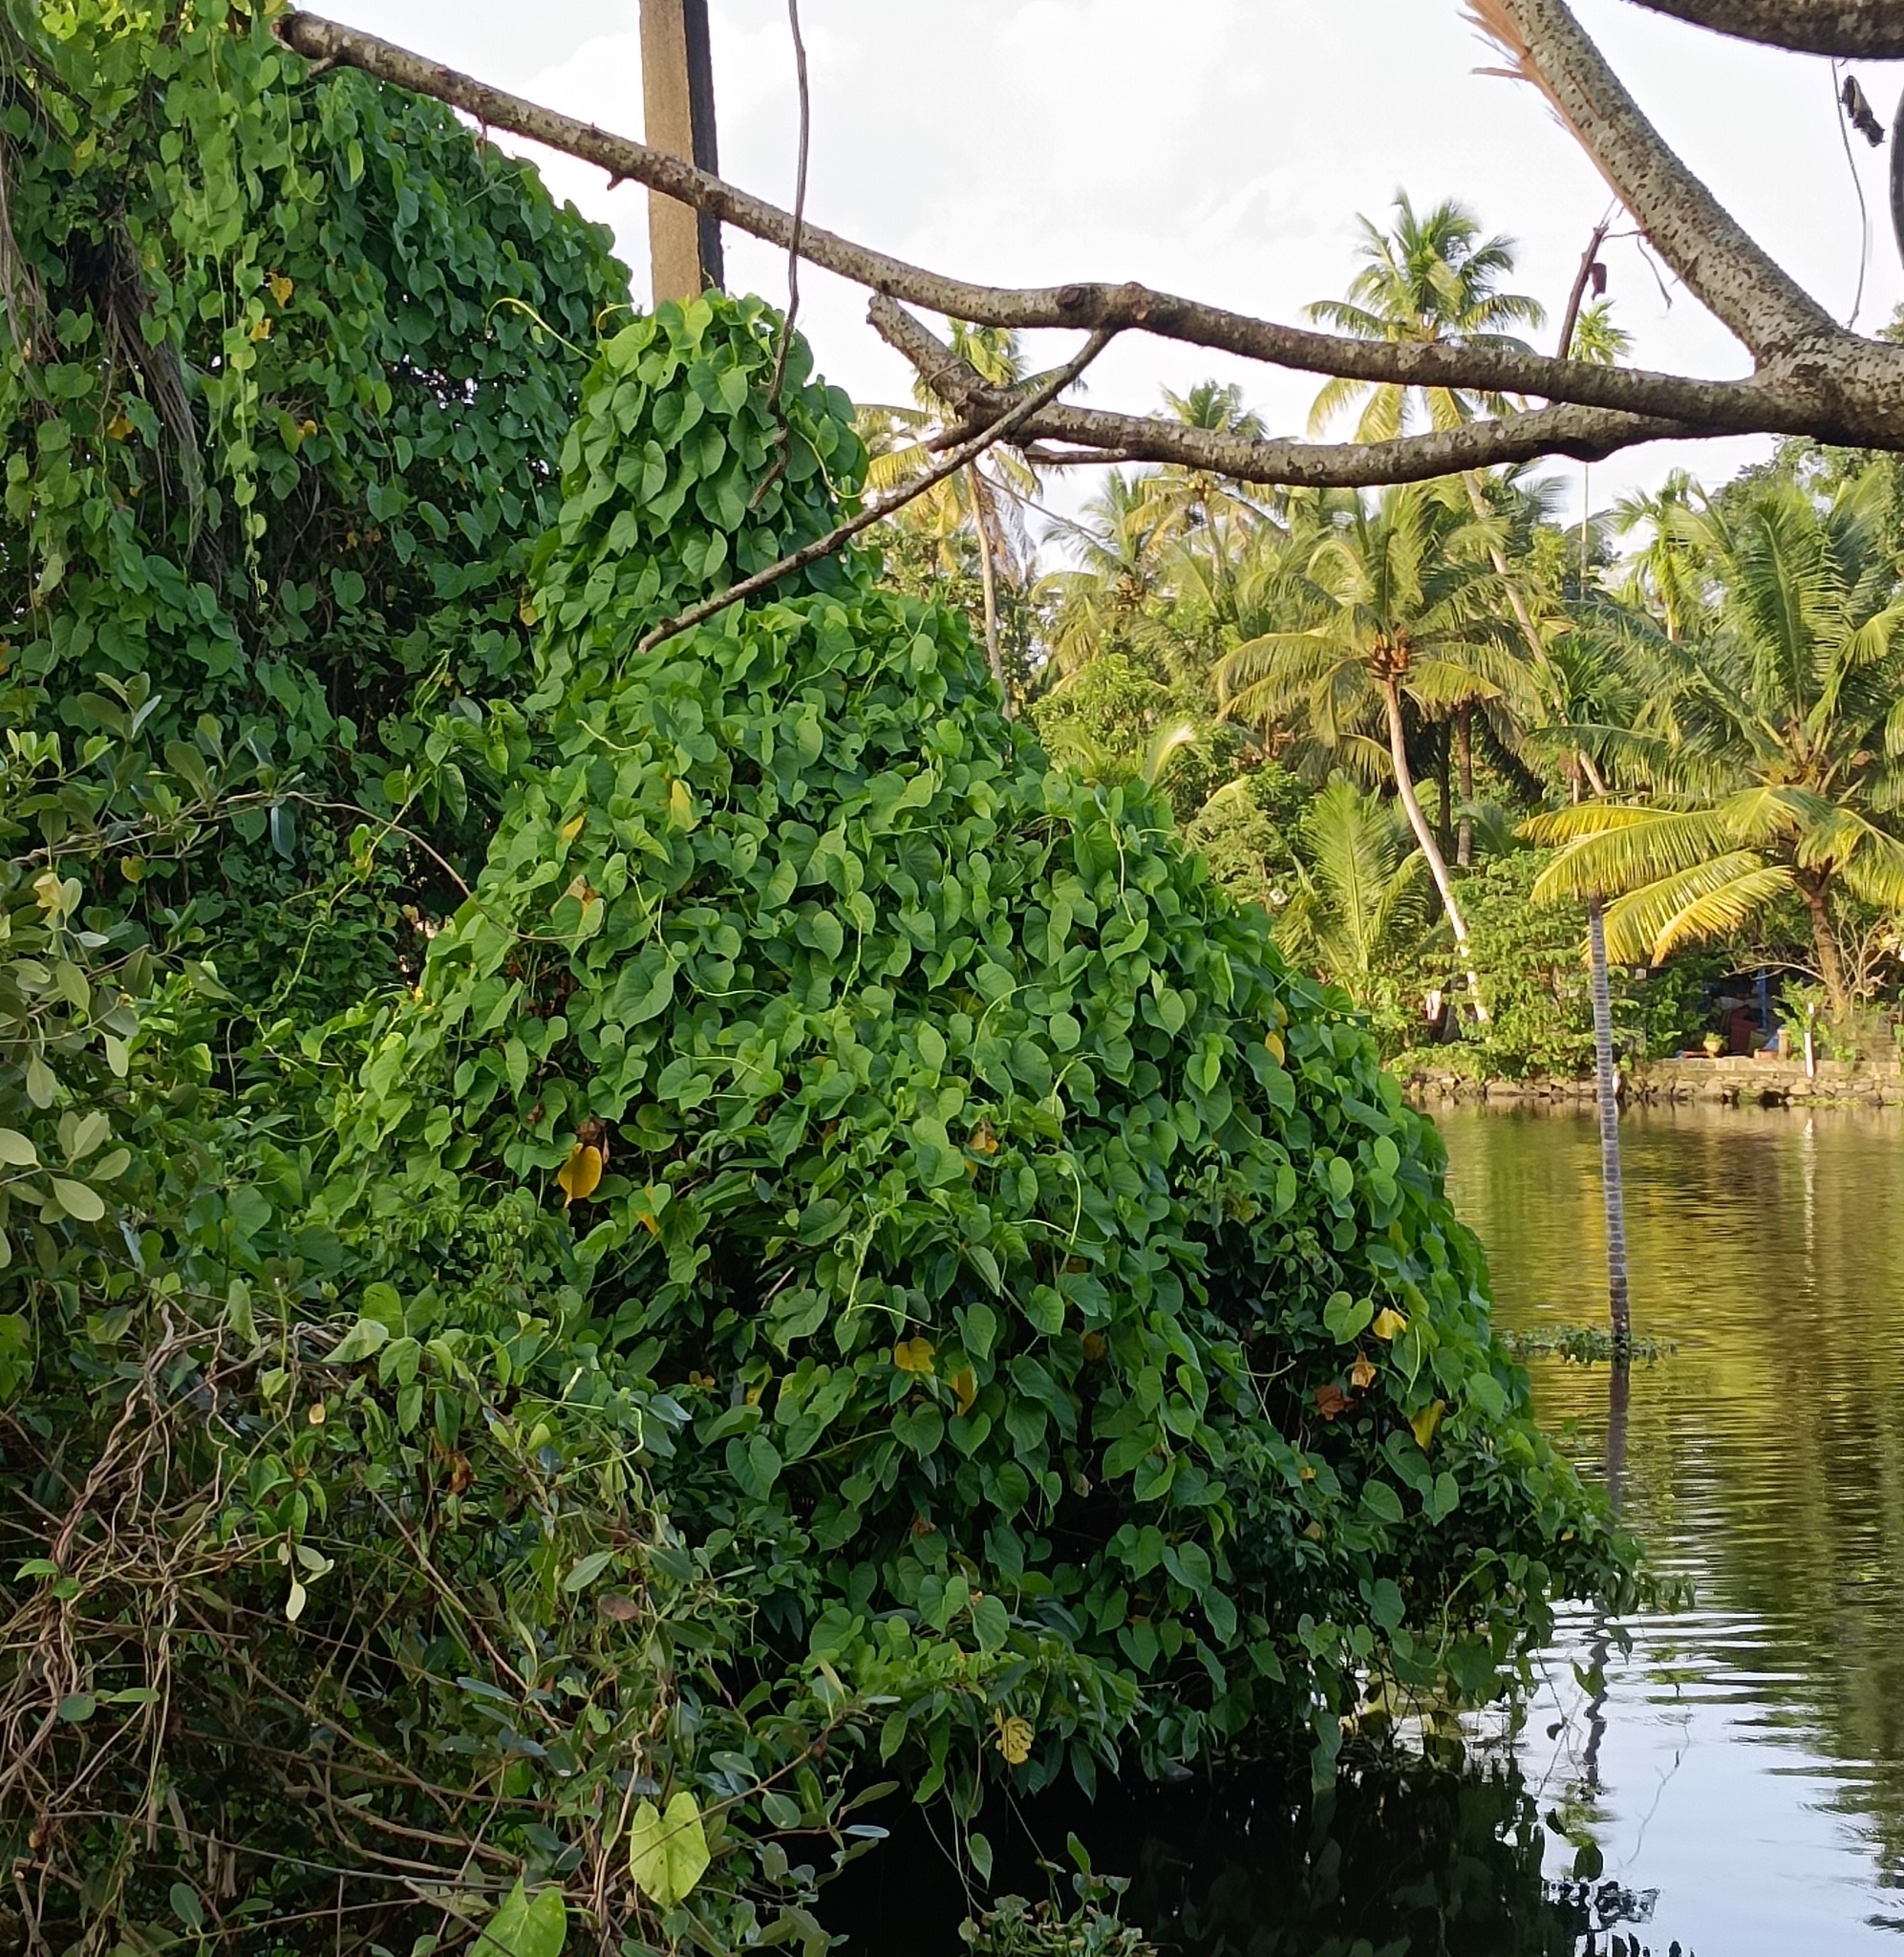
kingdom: Plantae
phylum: Tracheophyta
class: Magnoliopsida
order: Solanales
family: Convolvulaceae
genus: Ipomoea
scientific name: Ipomoea violacea
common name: Beach moonflower
